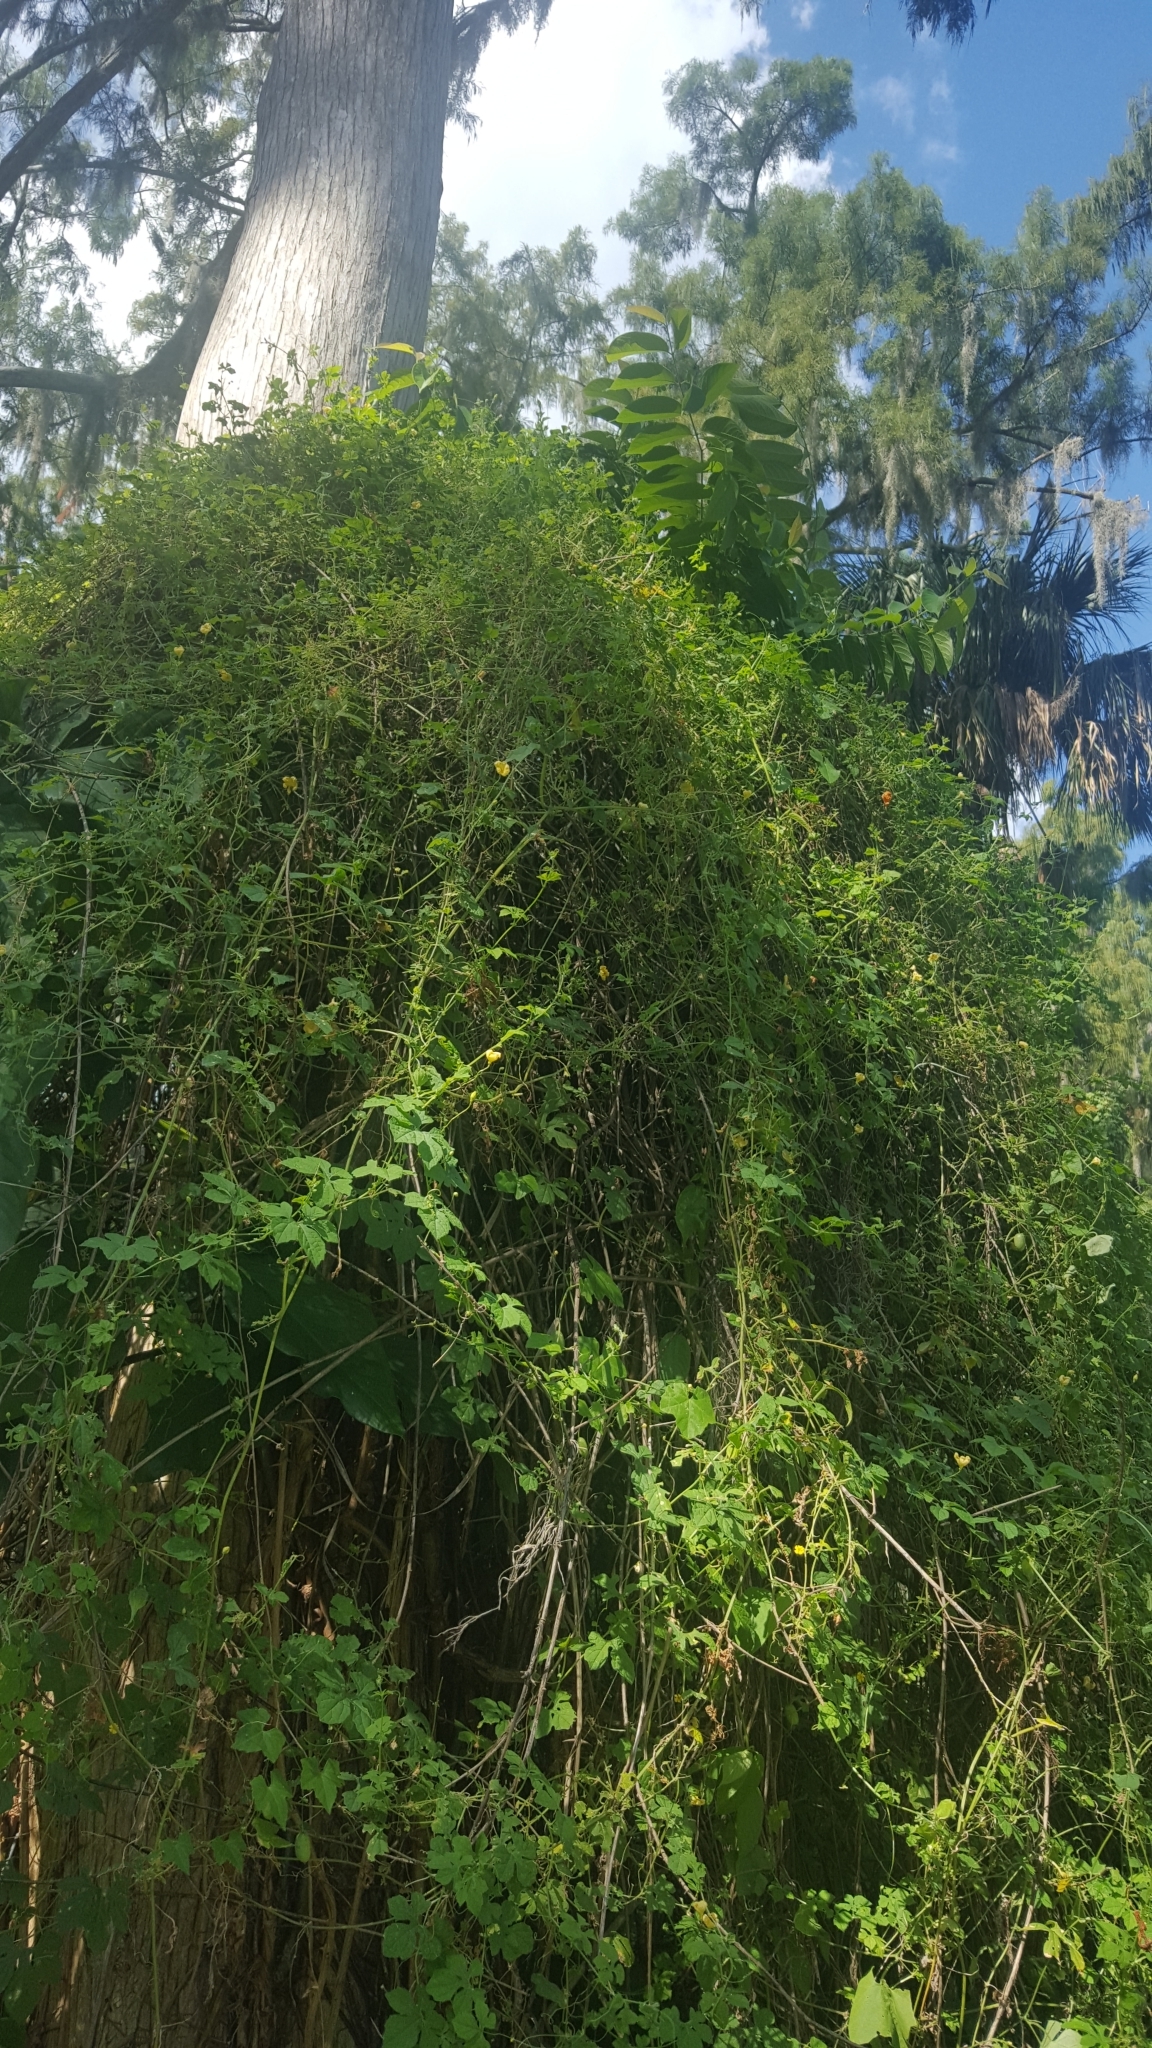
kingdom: Plantae
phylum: Tracheophyta
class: Magnoliopsida
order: Cucurbitales
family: Cucurbitaceae
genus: Momordica
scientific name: Momordica charantia
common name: Balsampear
